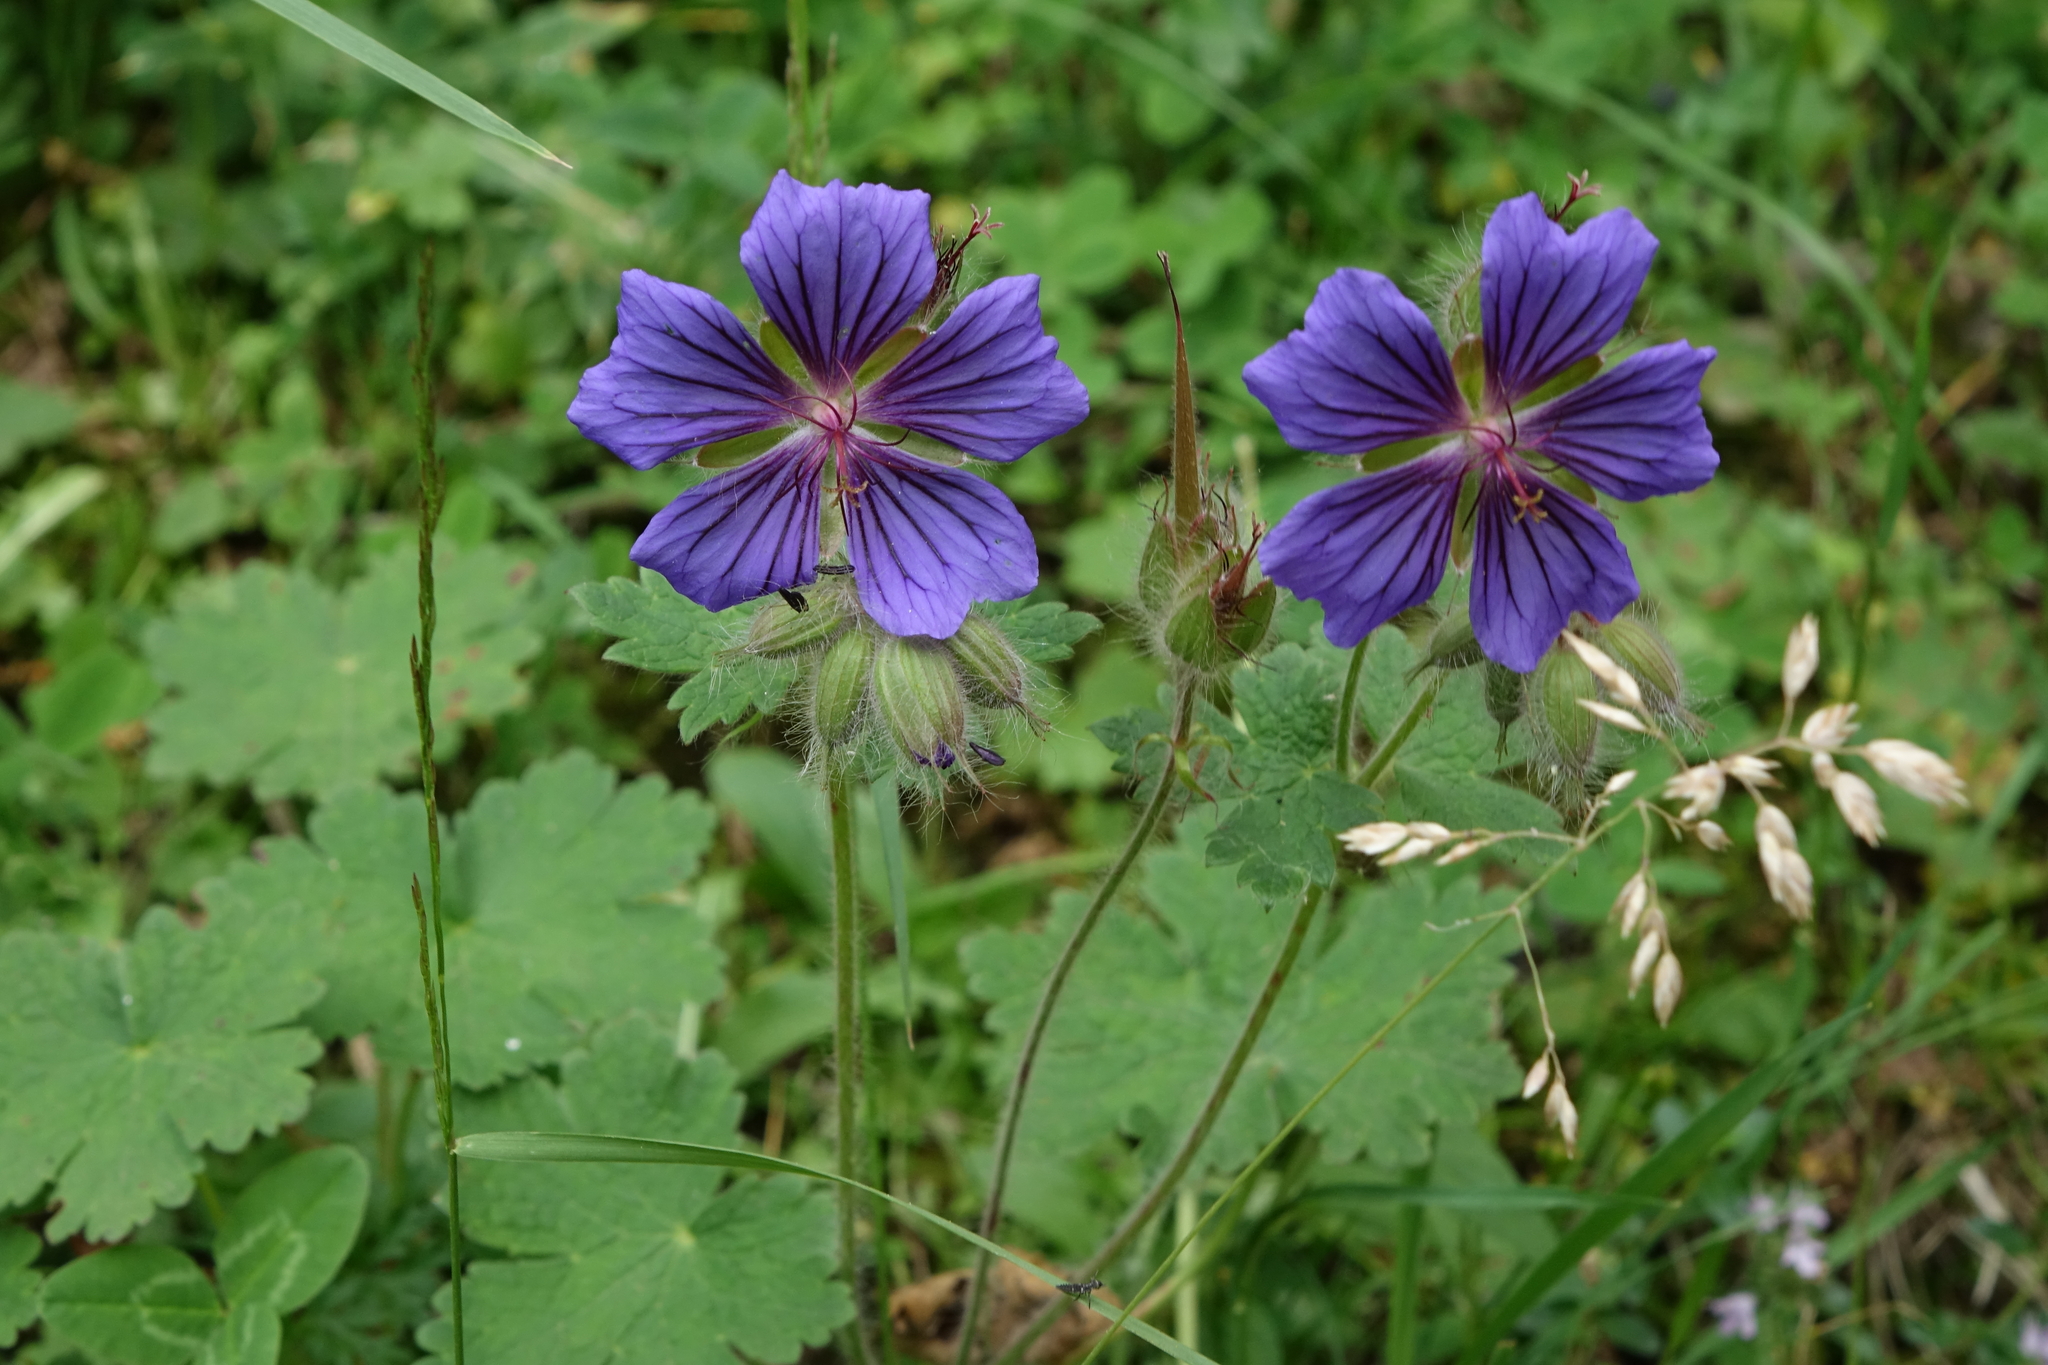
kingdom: Plantae
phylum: Tracheophyta
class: Magnoliopsida
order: Geraniales
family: Geraniaceae
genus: Geranium
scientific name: Geranium platypetalum
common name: Glandular crane's-bill
